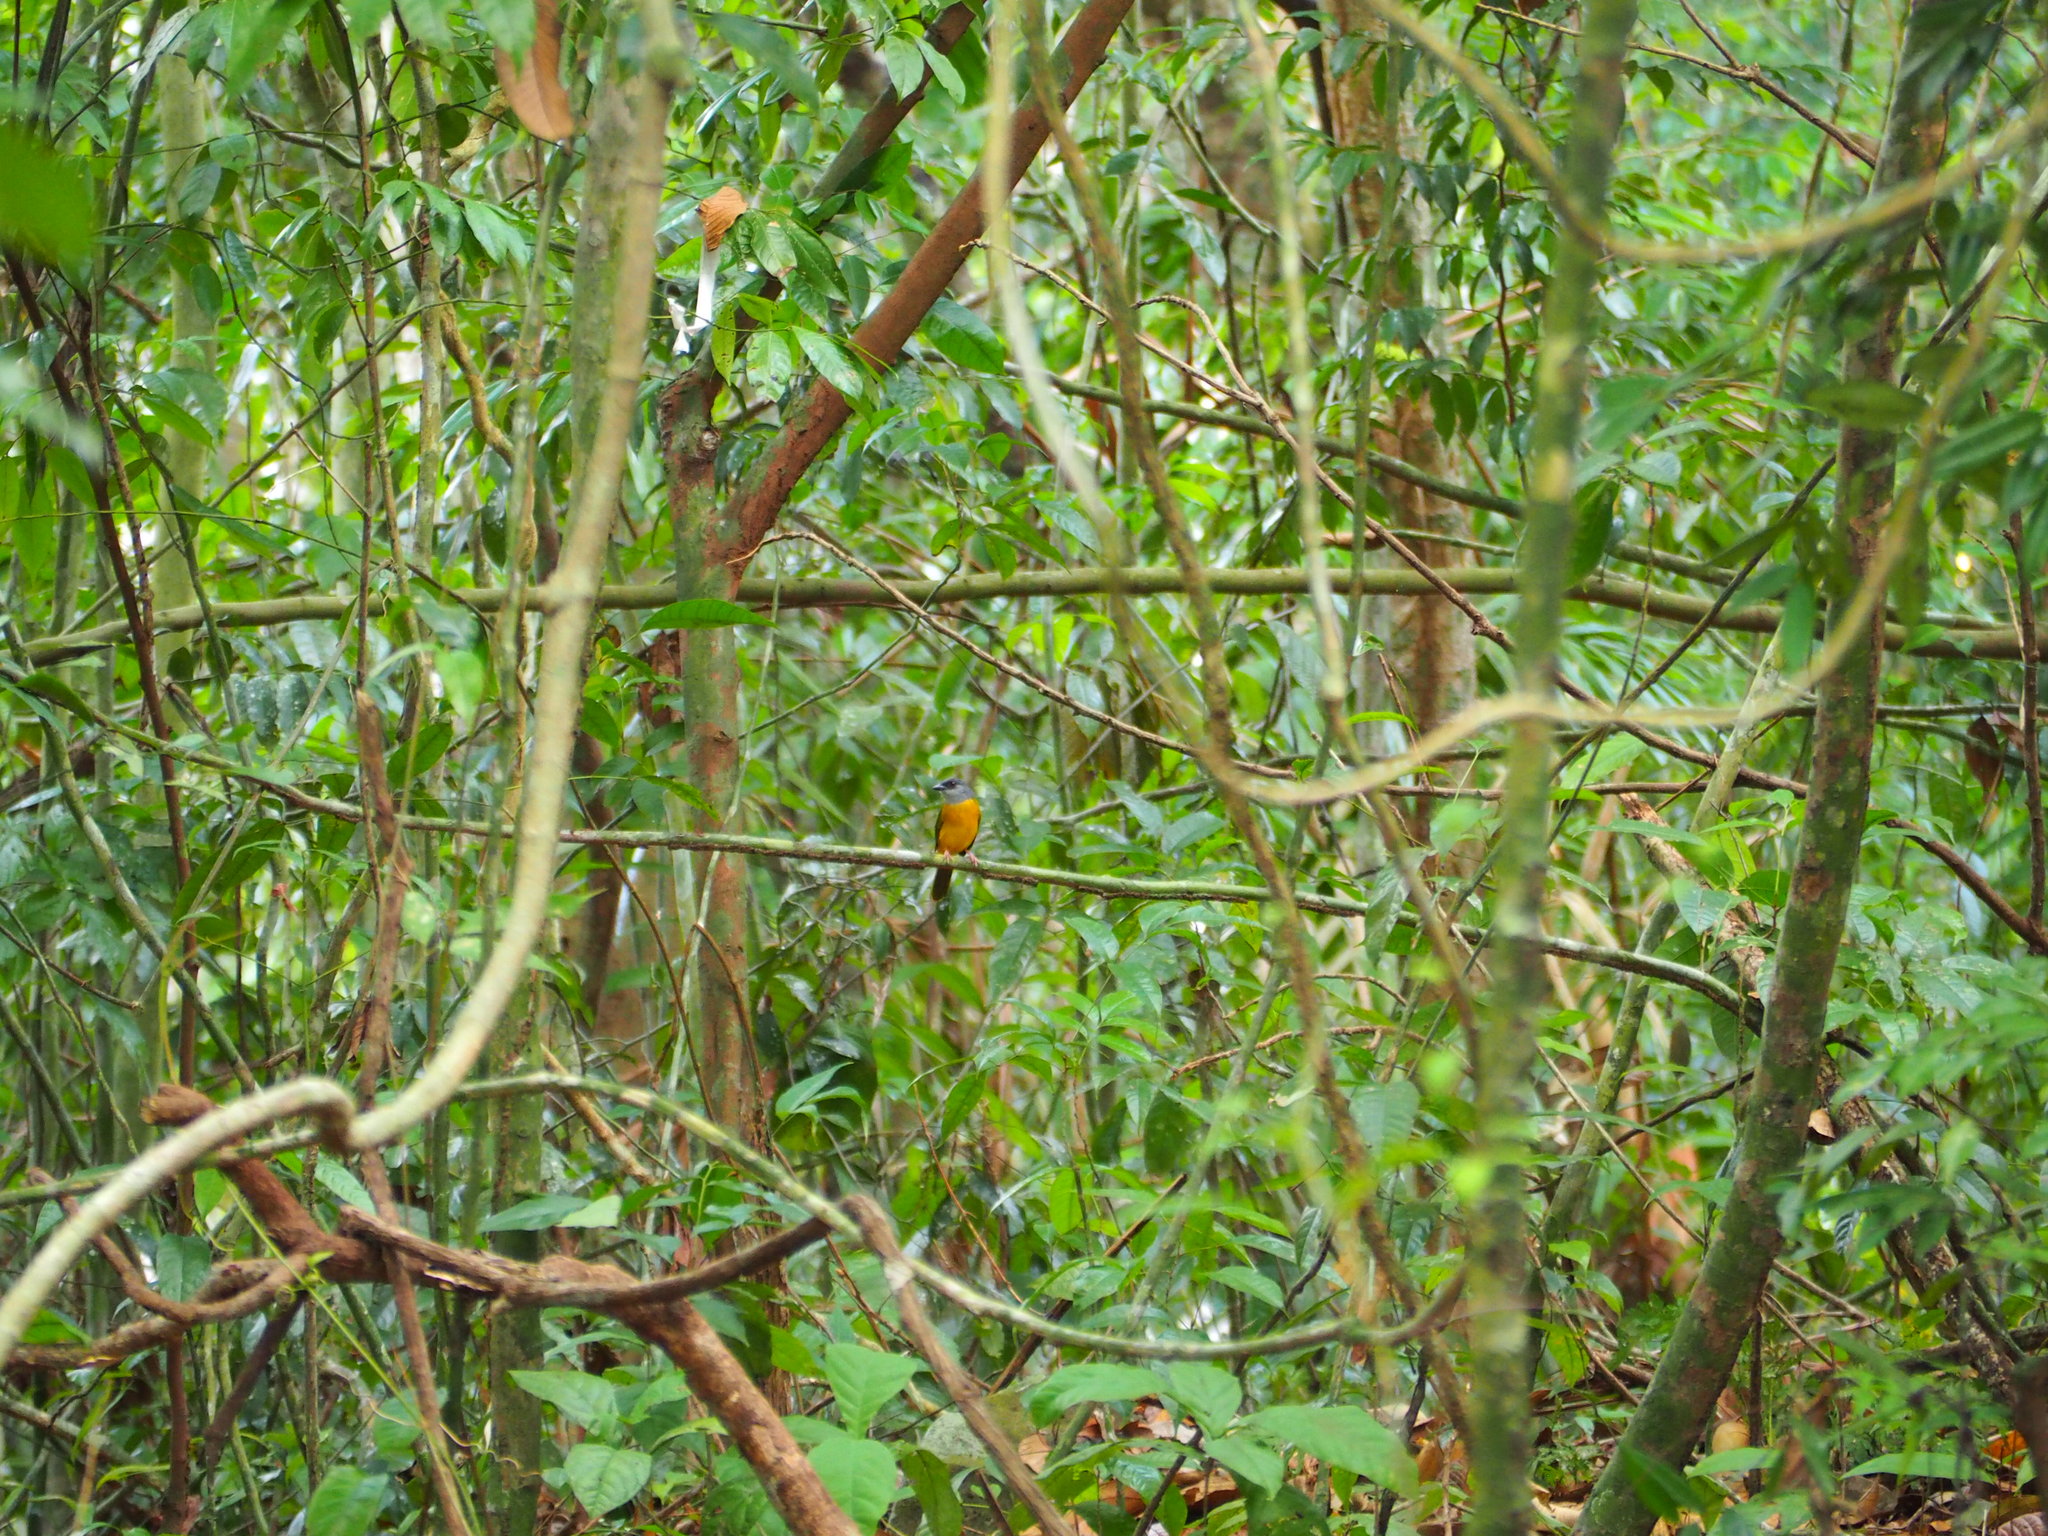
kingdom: Animalia
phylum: Chordata
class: Aves
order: Passeriformes
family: Thraupidae
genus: Eucometis
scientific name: Eucometis penicillata
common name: Grey-headed tanager
